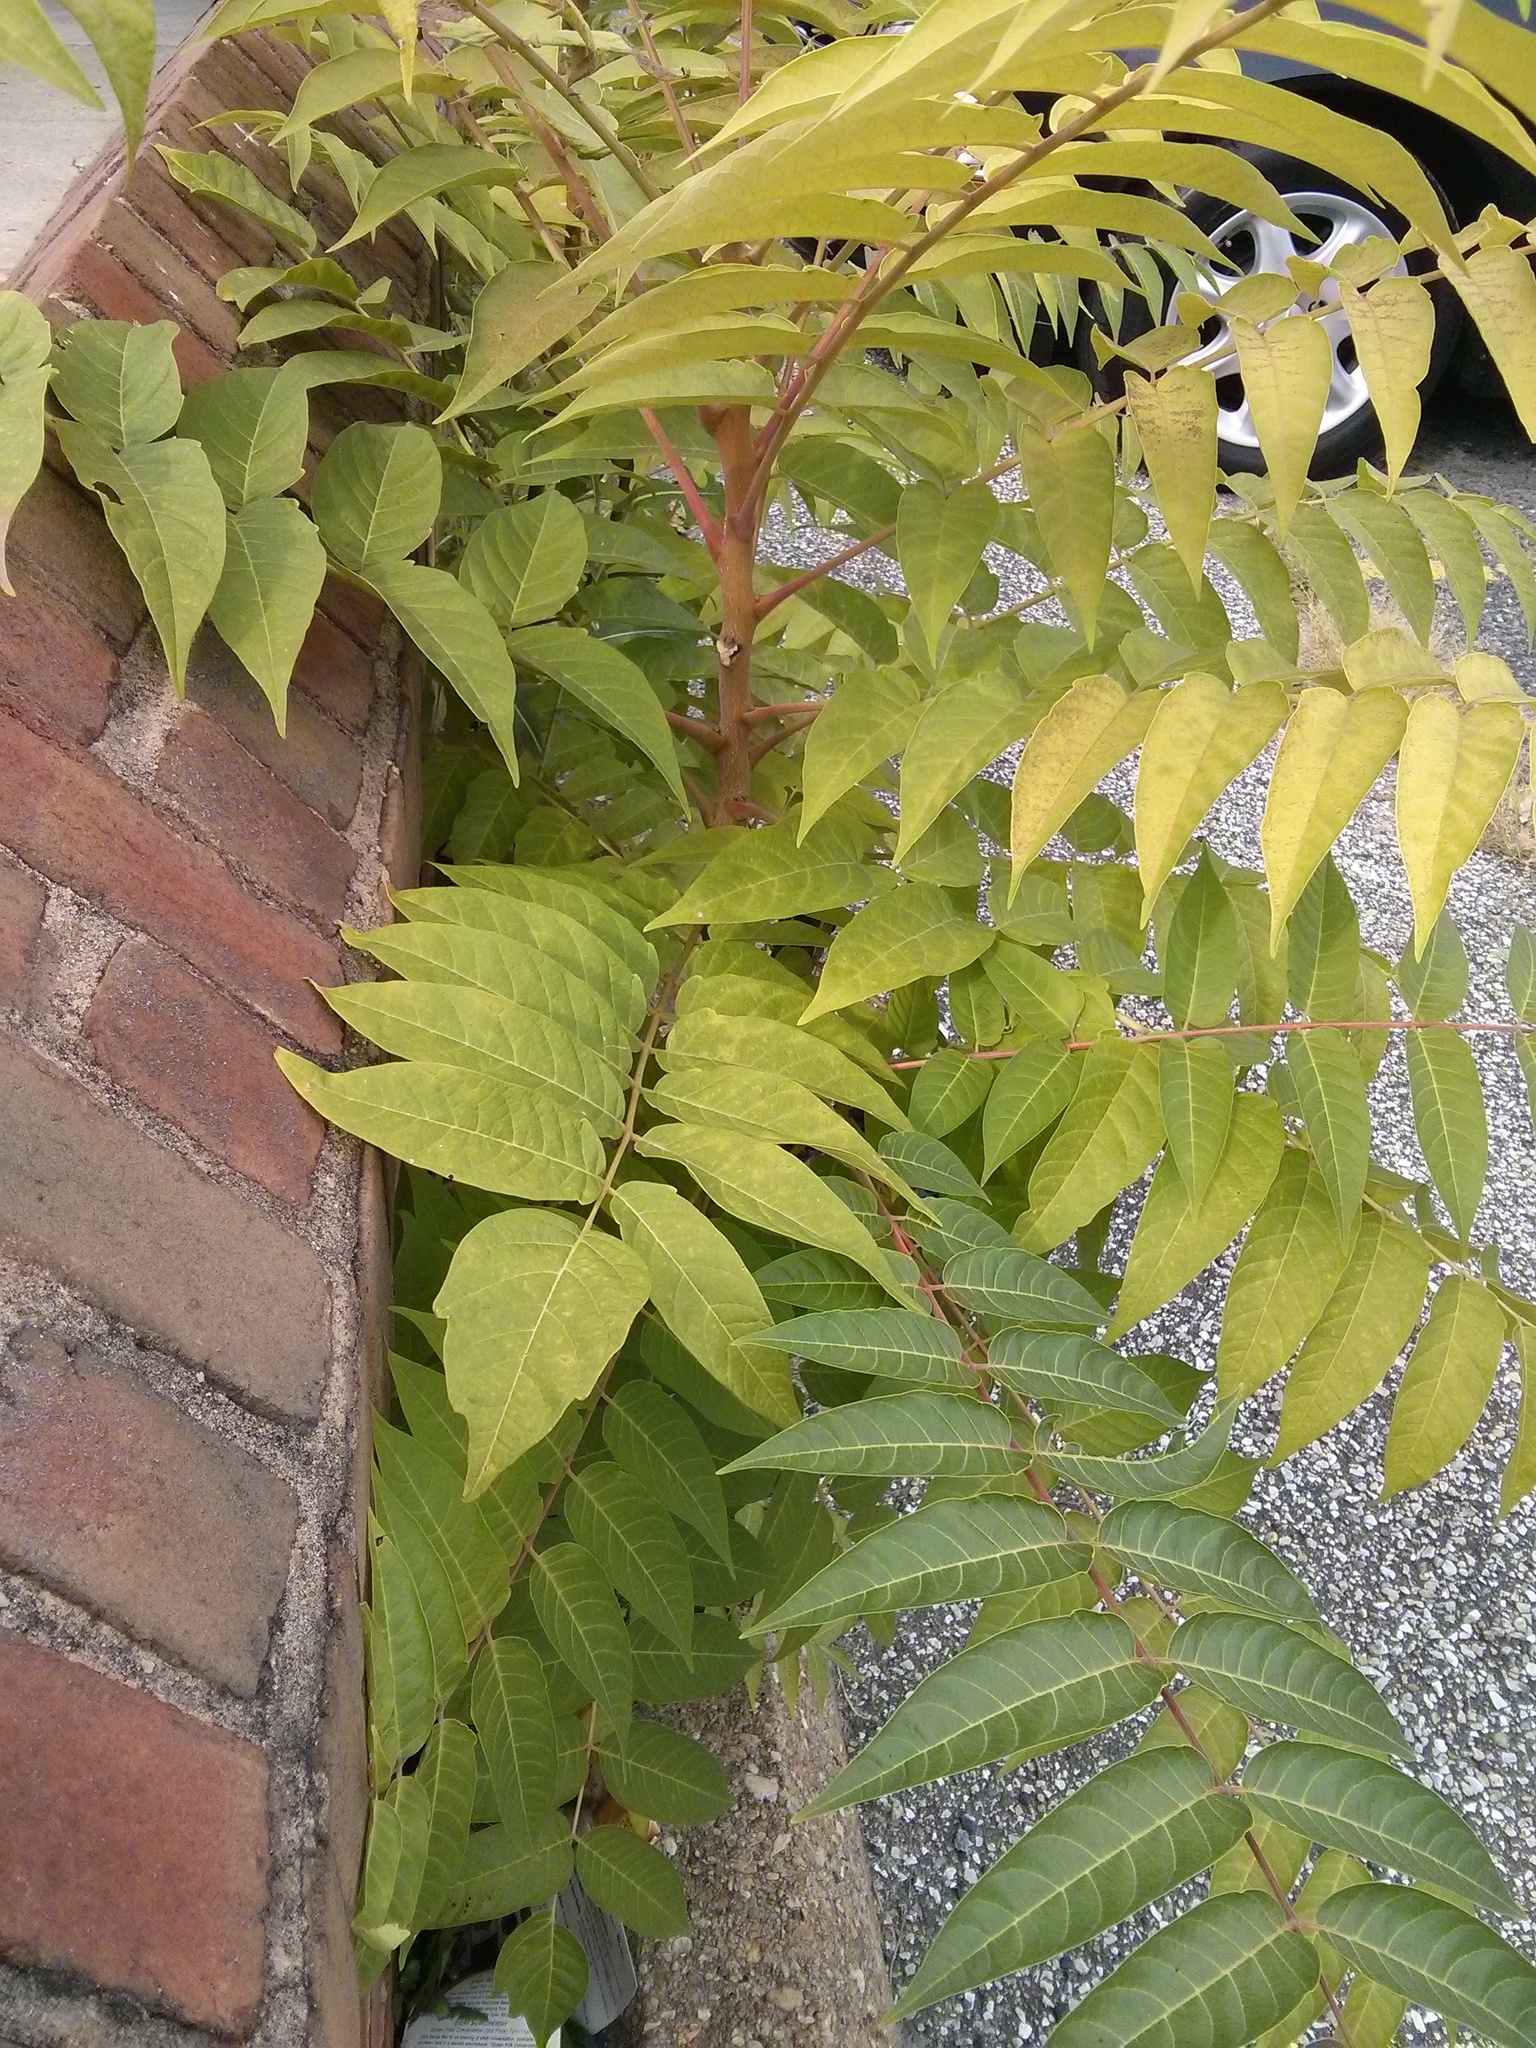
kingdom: Plantae
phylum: Tracheophyta
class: Magnoliopsida
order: Sapindales
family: Simaroubaceae
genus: Ailanthus
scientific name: Ailanthus altissima
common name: Tree-of-heaven
